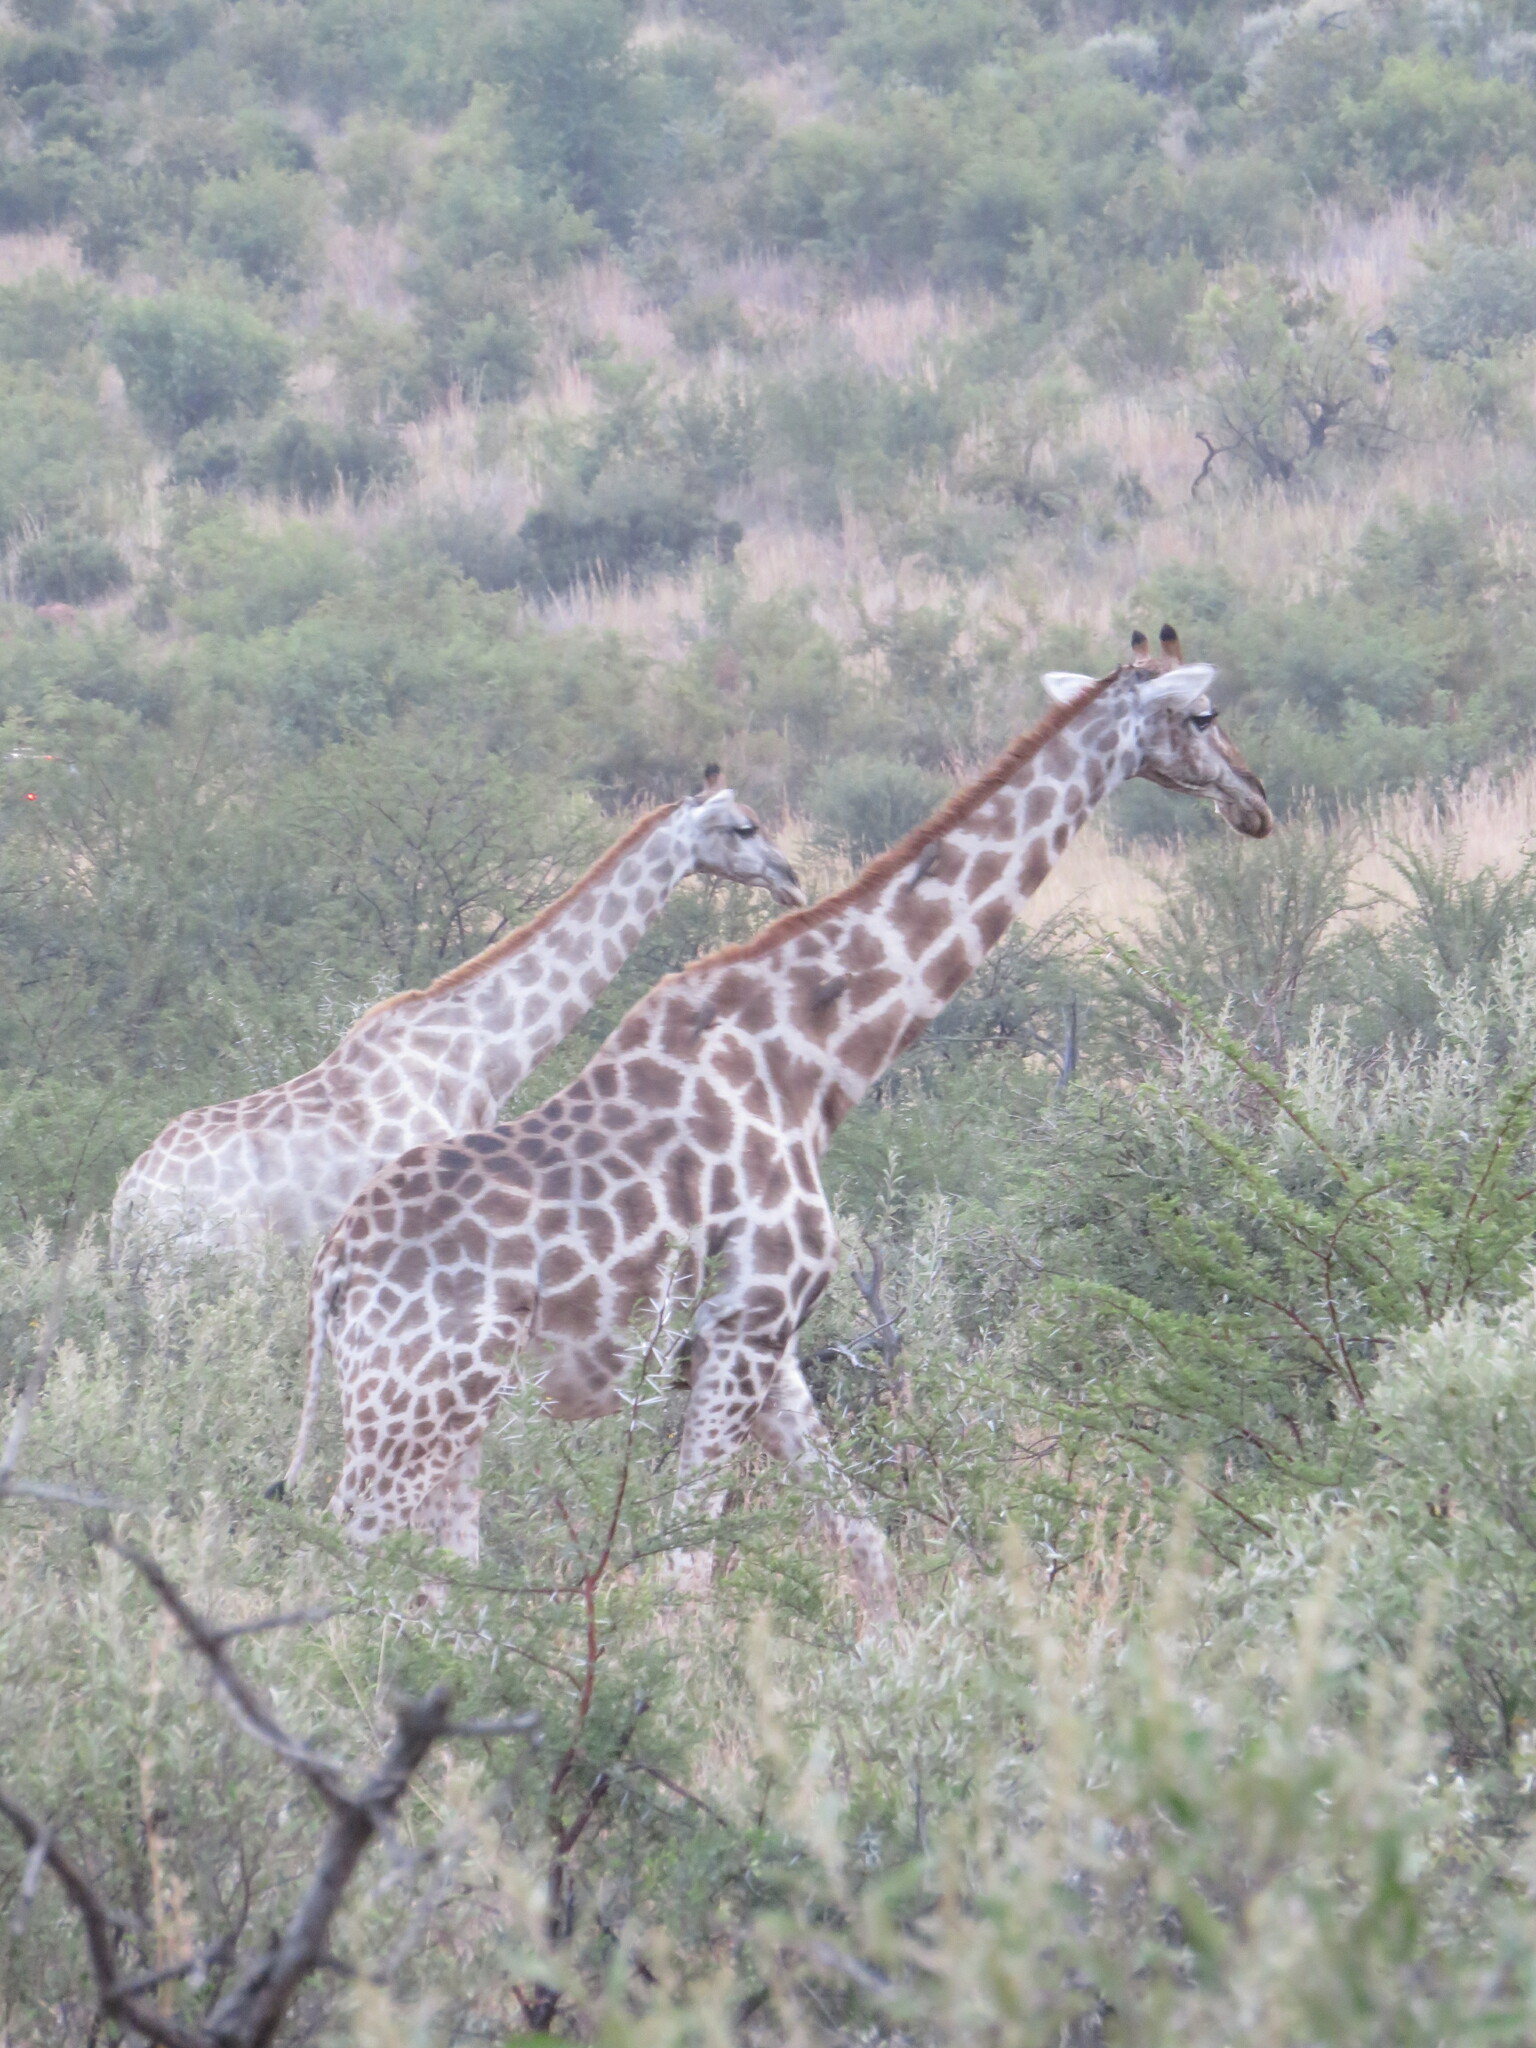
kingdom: Animalia
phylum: Chordata
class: Mammalia
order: Artiodactyla
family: Giraffidae
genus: Giraffa
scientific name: Giraffa giraffa
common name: Southern giraffe
